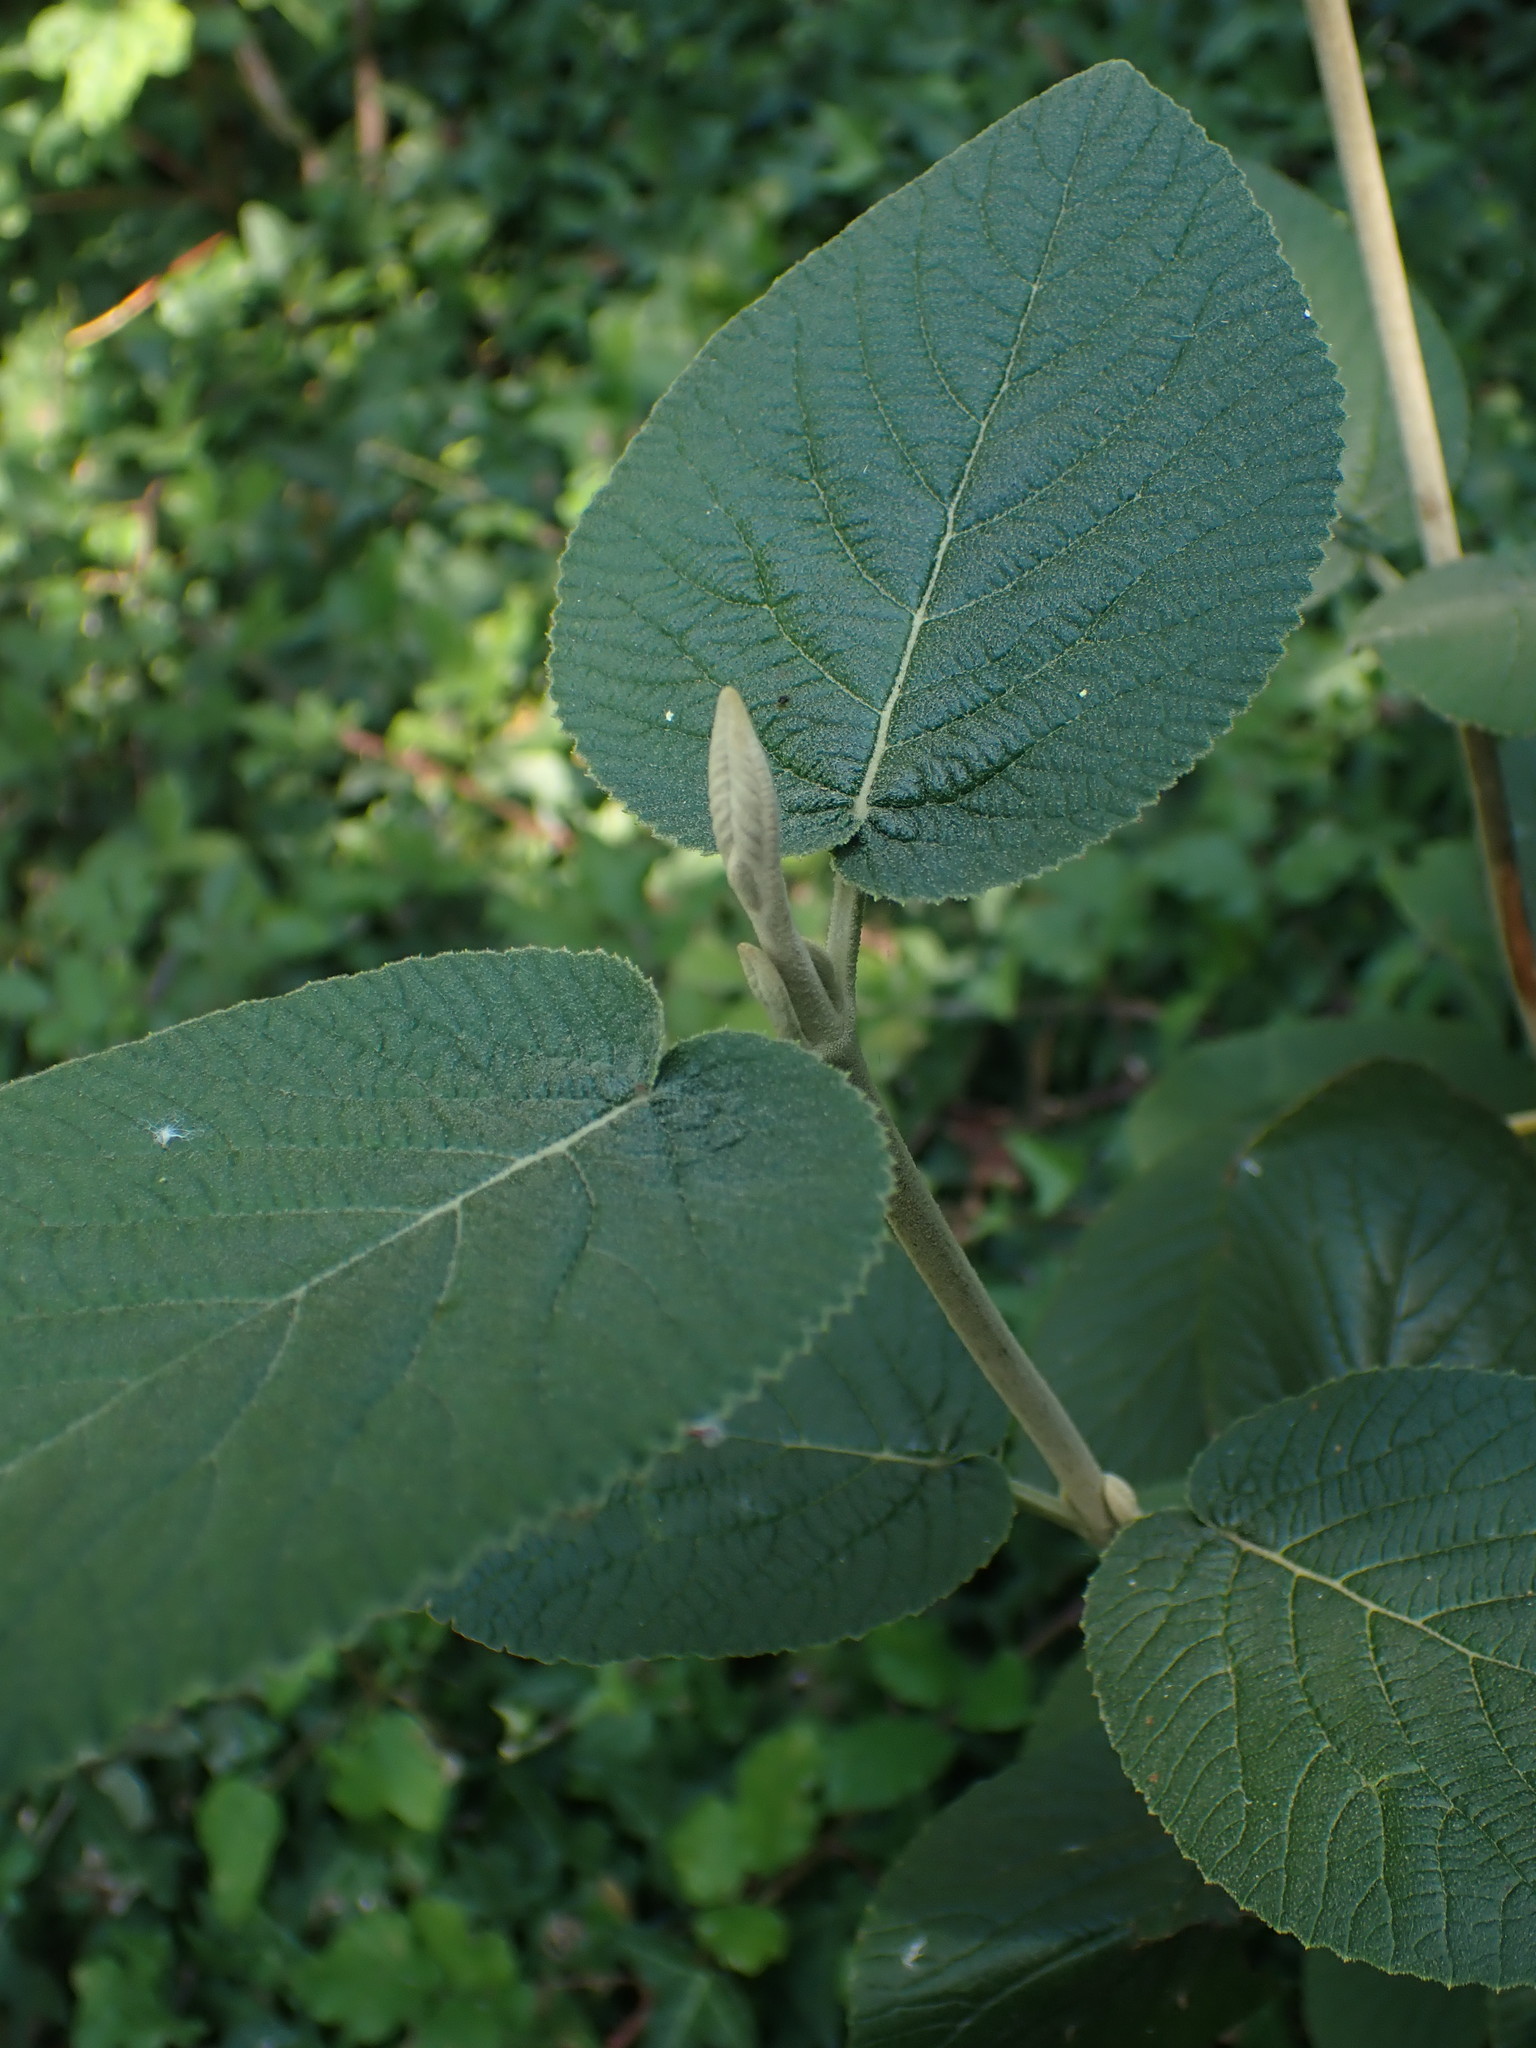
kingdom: Plantae
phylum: Tracheophyta
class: Magnoliopsida
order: Dipsacales
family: Viburnaceae
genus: Viburnum
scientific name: Viburnum lantana
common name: Wayfaring tree
